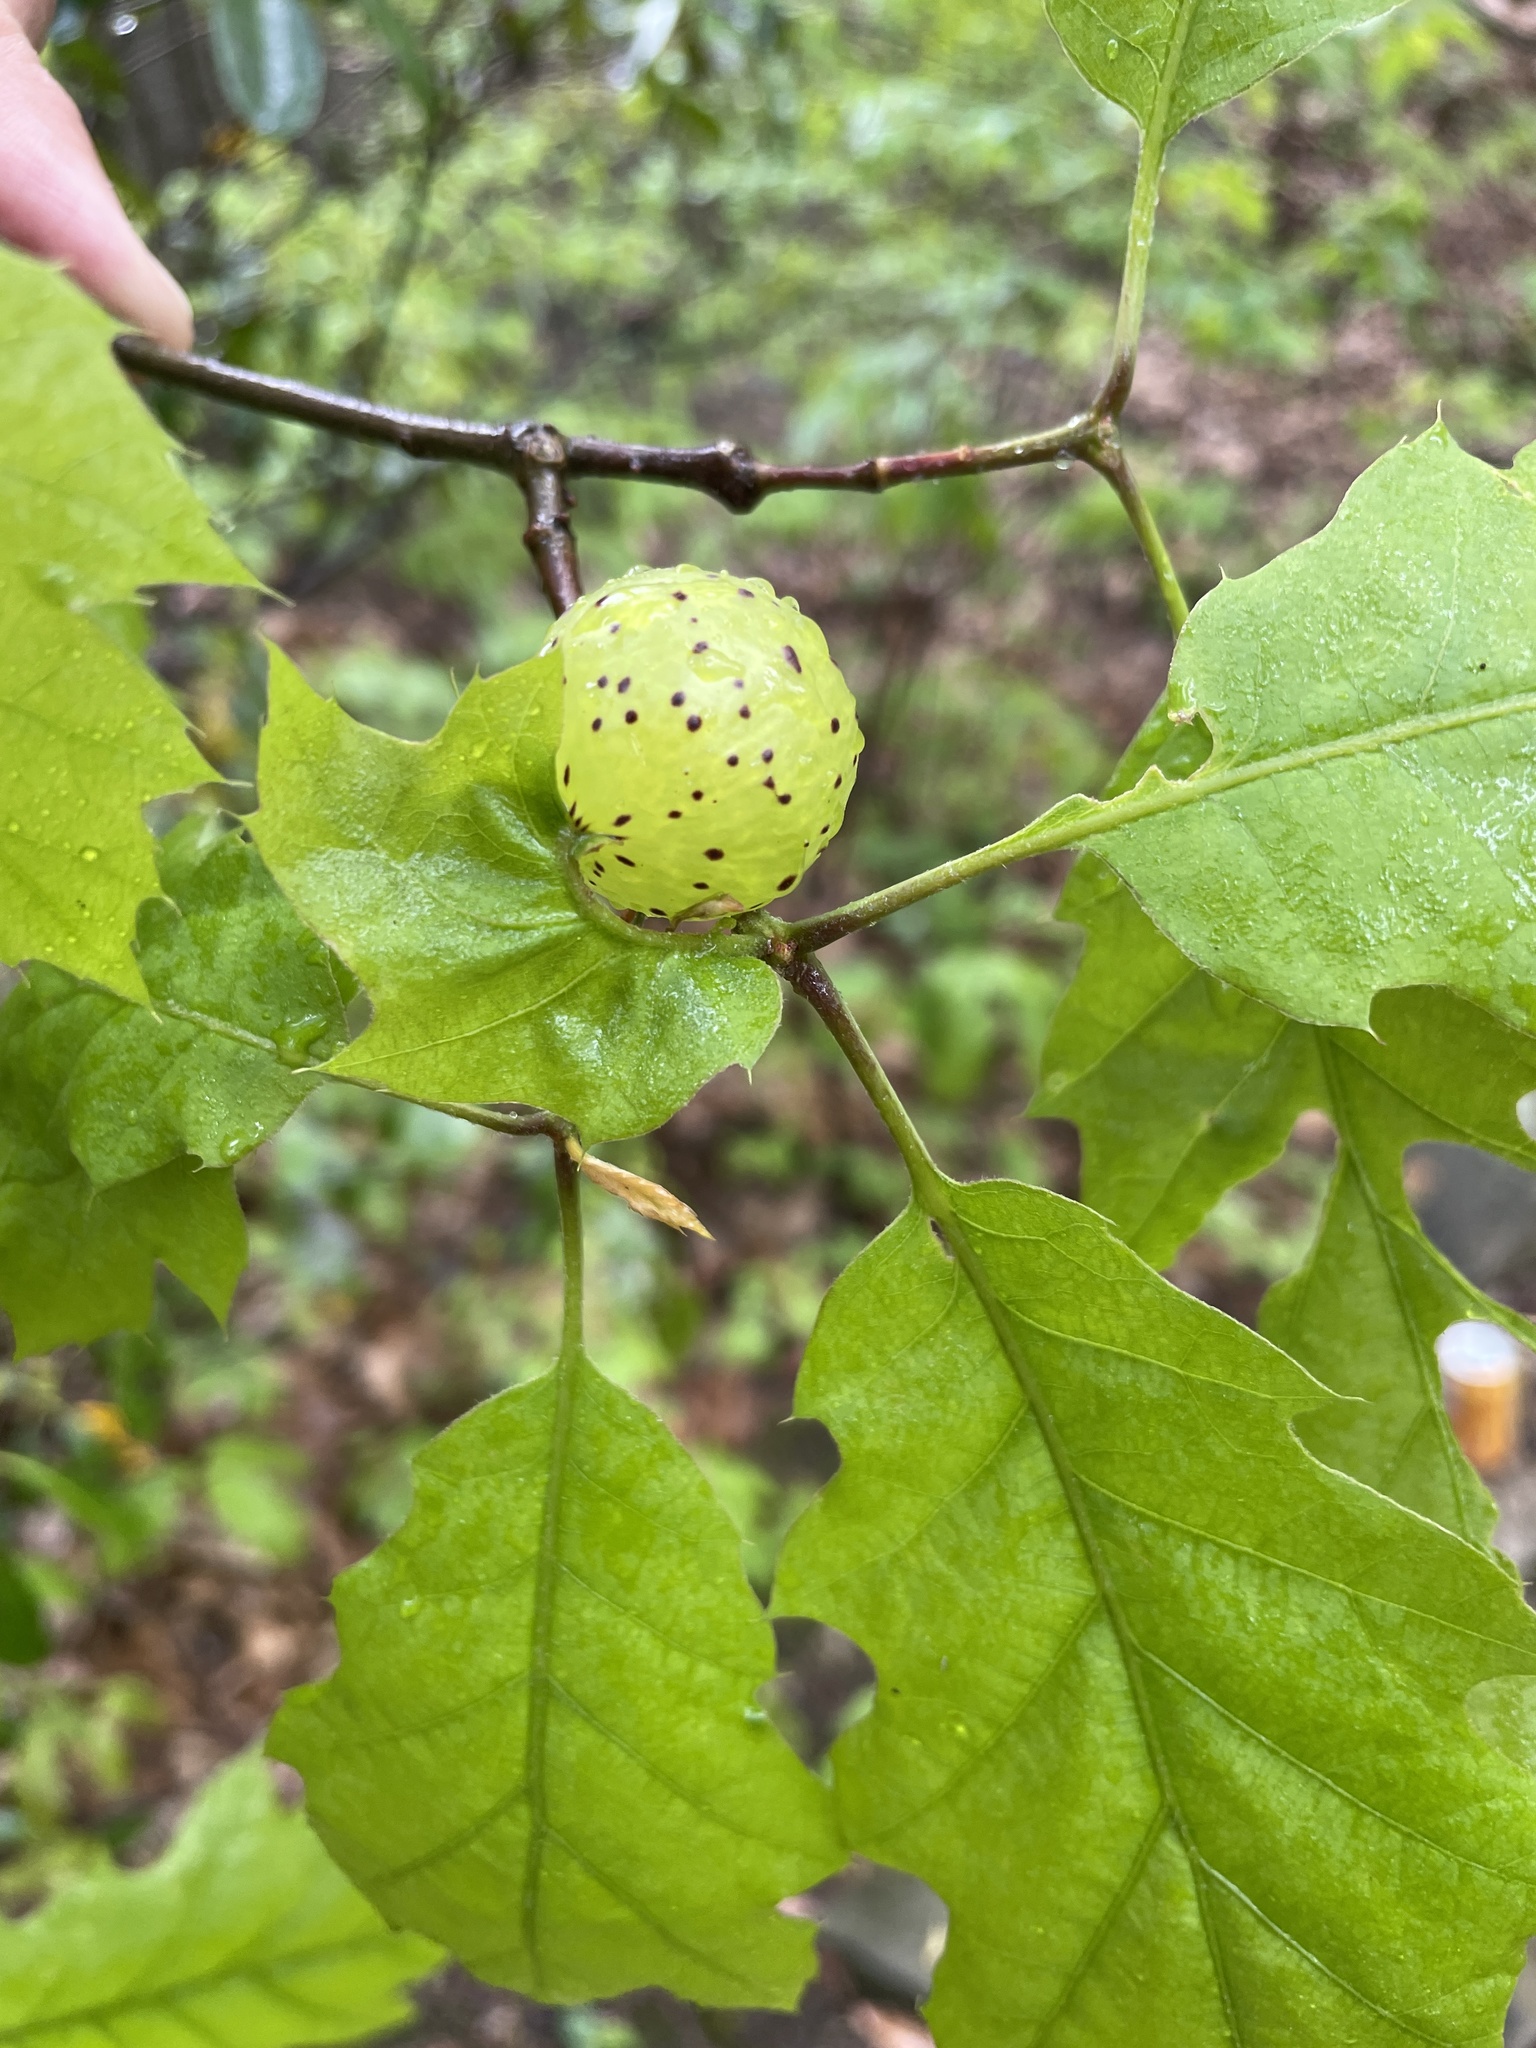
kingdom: Animalia
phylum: Arthropoda
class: Insecta
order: Hymenoptera
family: Cynipidae
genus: Amphibolips
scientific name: Amphibolips
